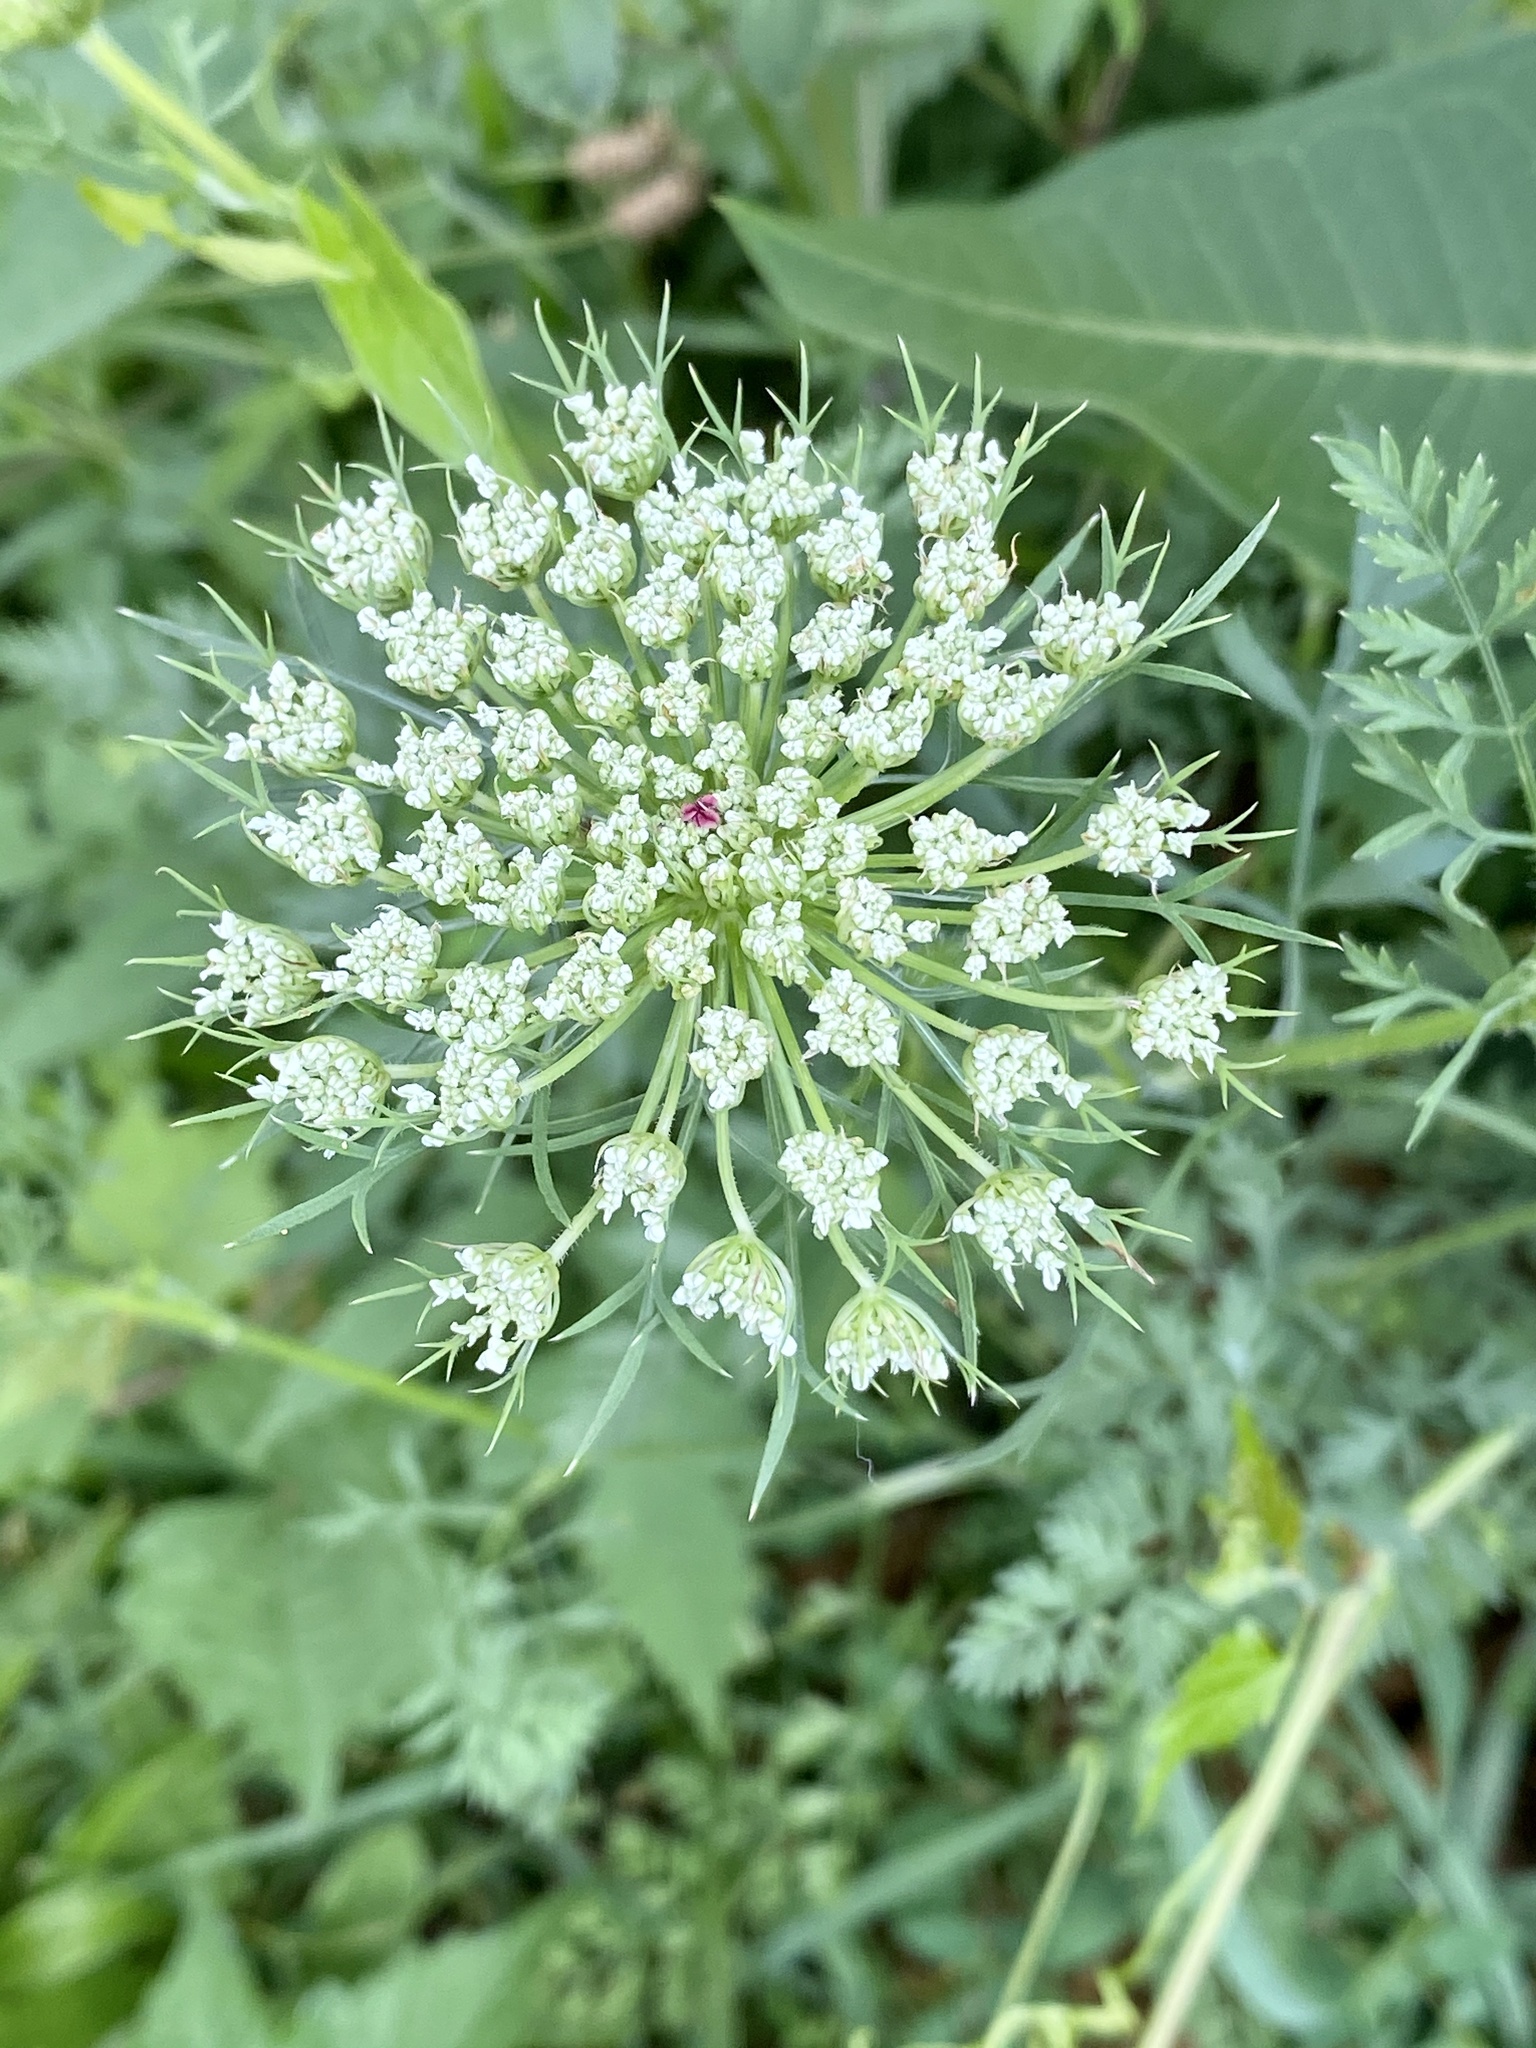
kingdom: Plantae
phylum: Tracheophyta
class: Magnoliopsida
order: Apiales
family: Apiaceae
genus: Daucus
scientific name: Daucus carota
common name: Wild carrot
